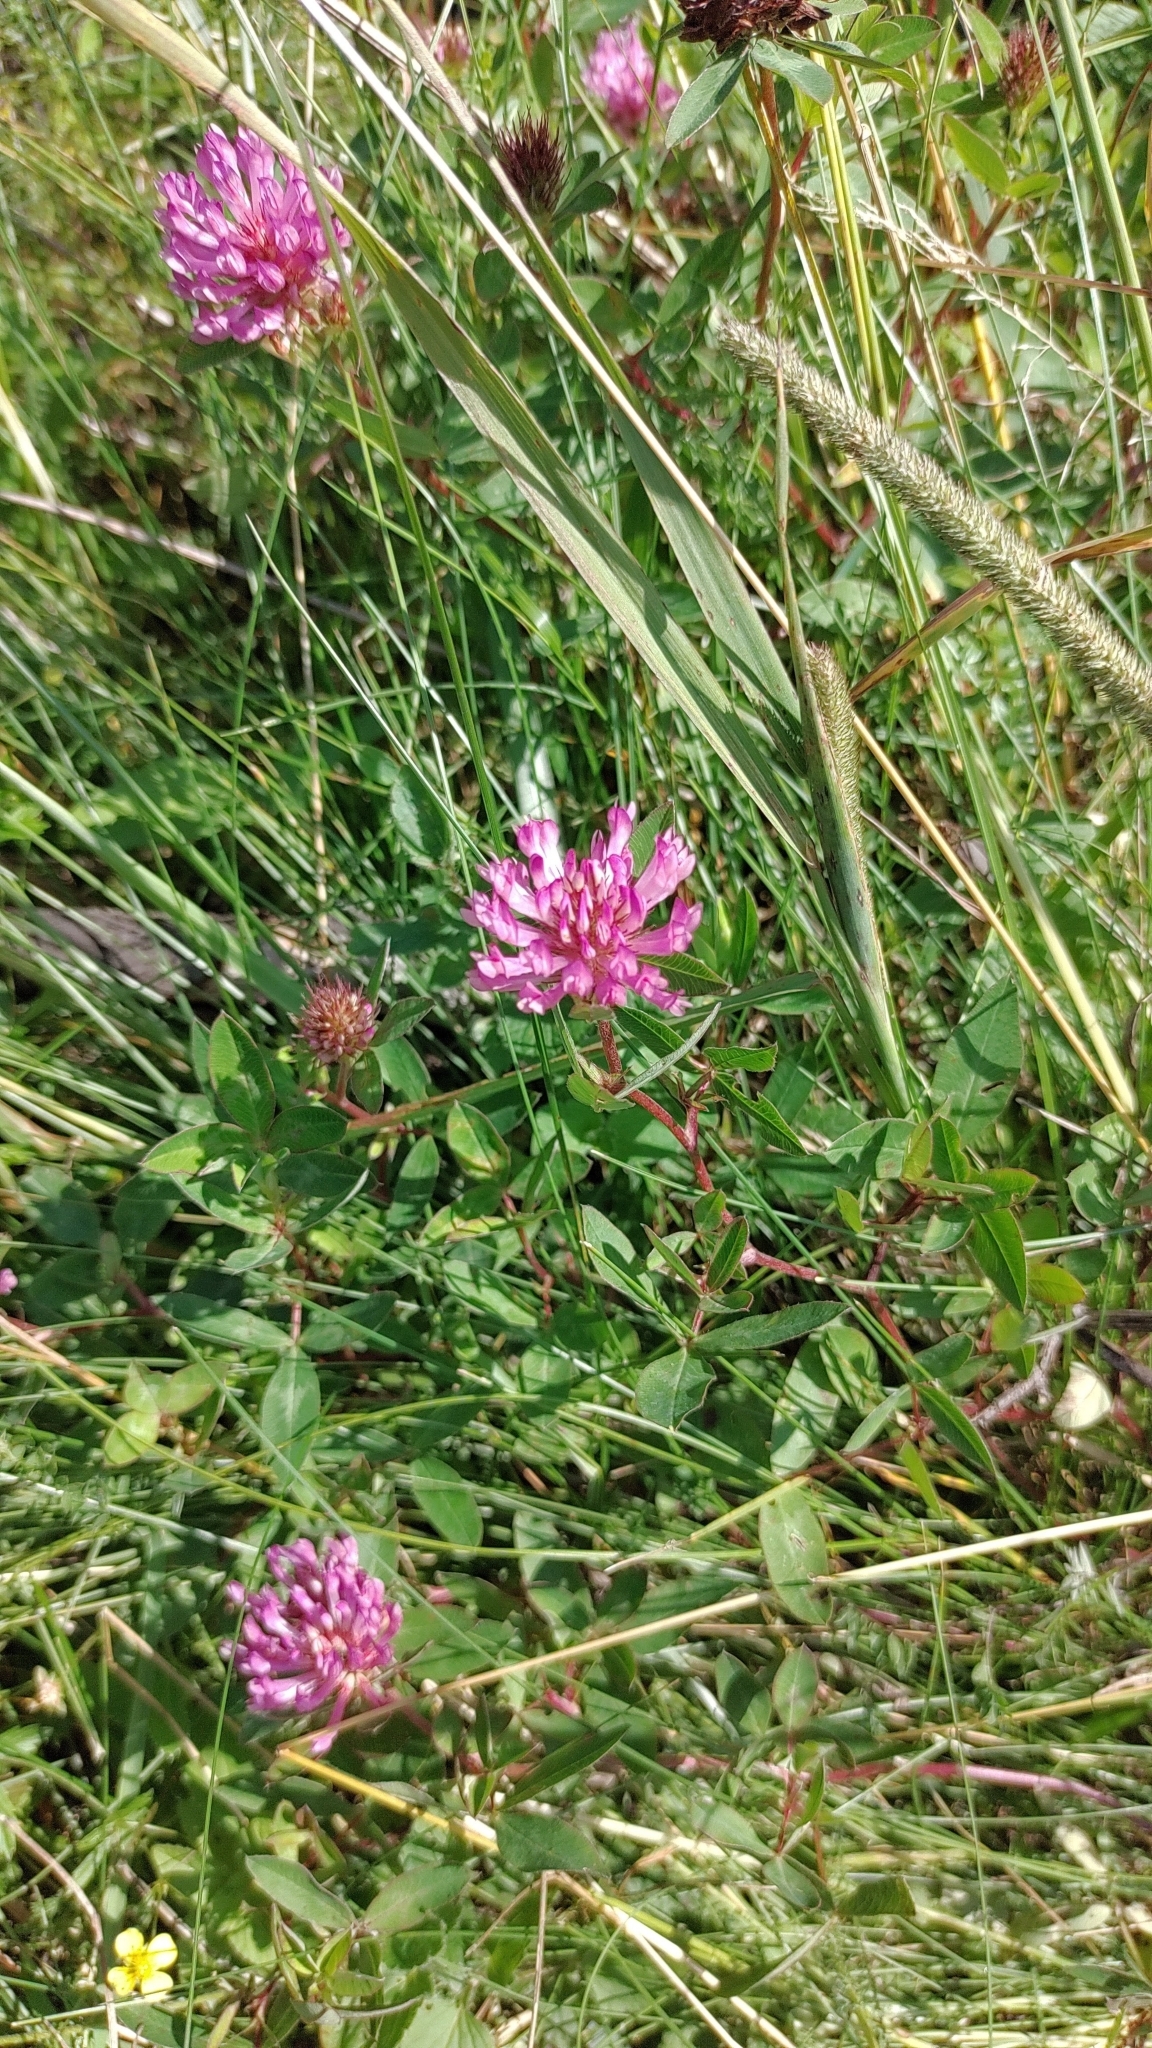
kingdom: Plantae
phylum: Tracheophyta
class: Magnoliopsida
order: Fabales
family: Fabaceae
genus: Trifolium
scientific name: Trifolium medium
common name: Zigzag clover
